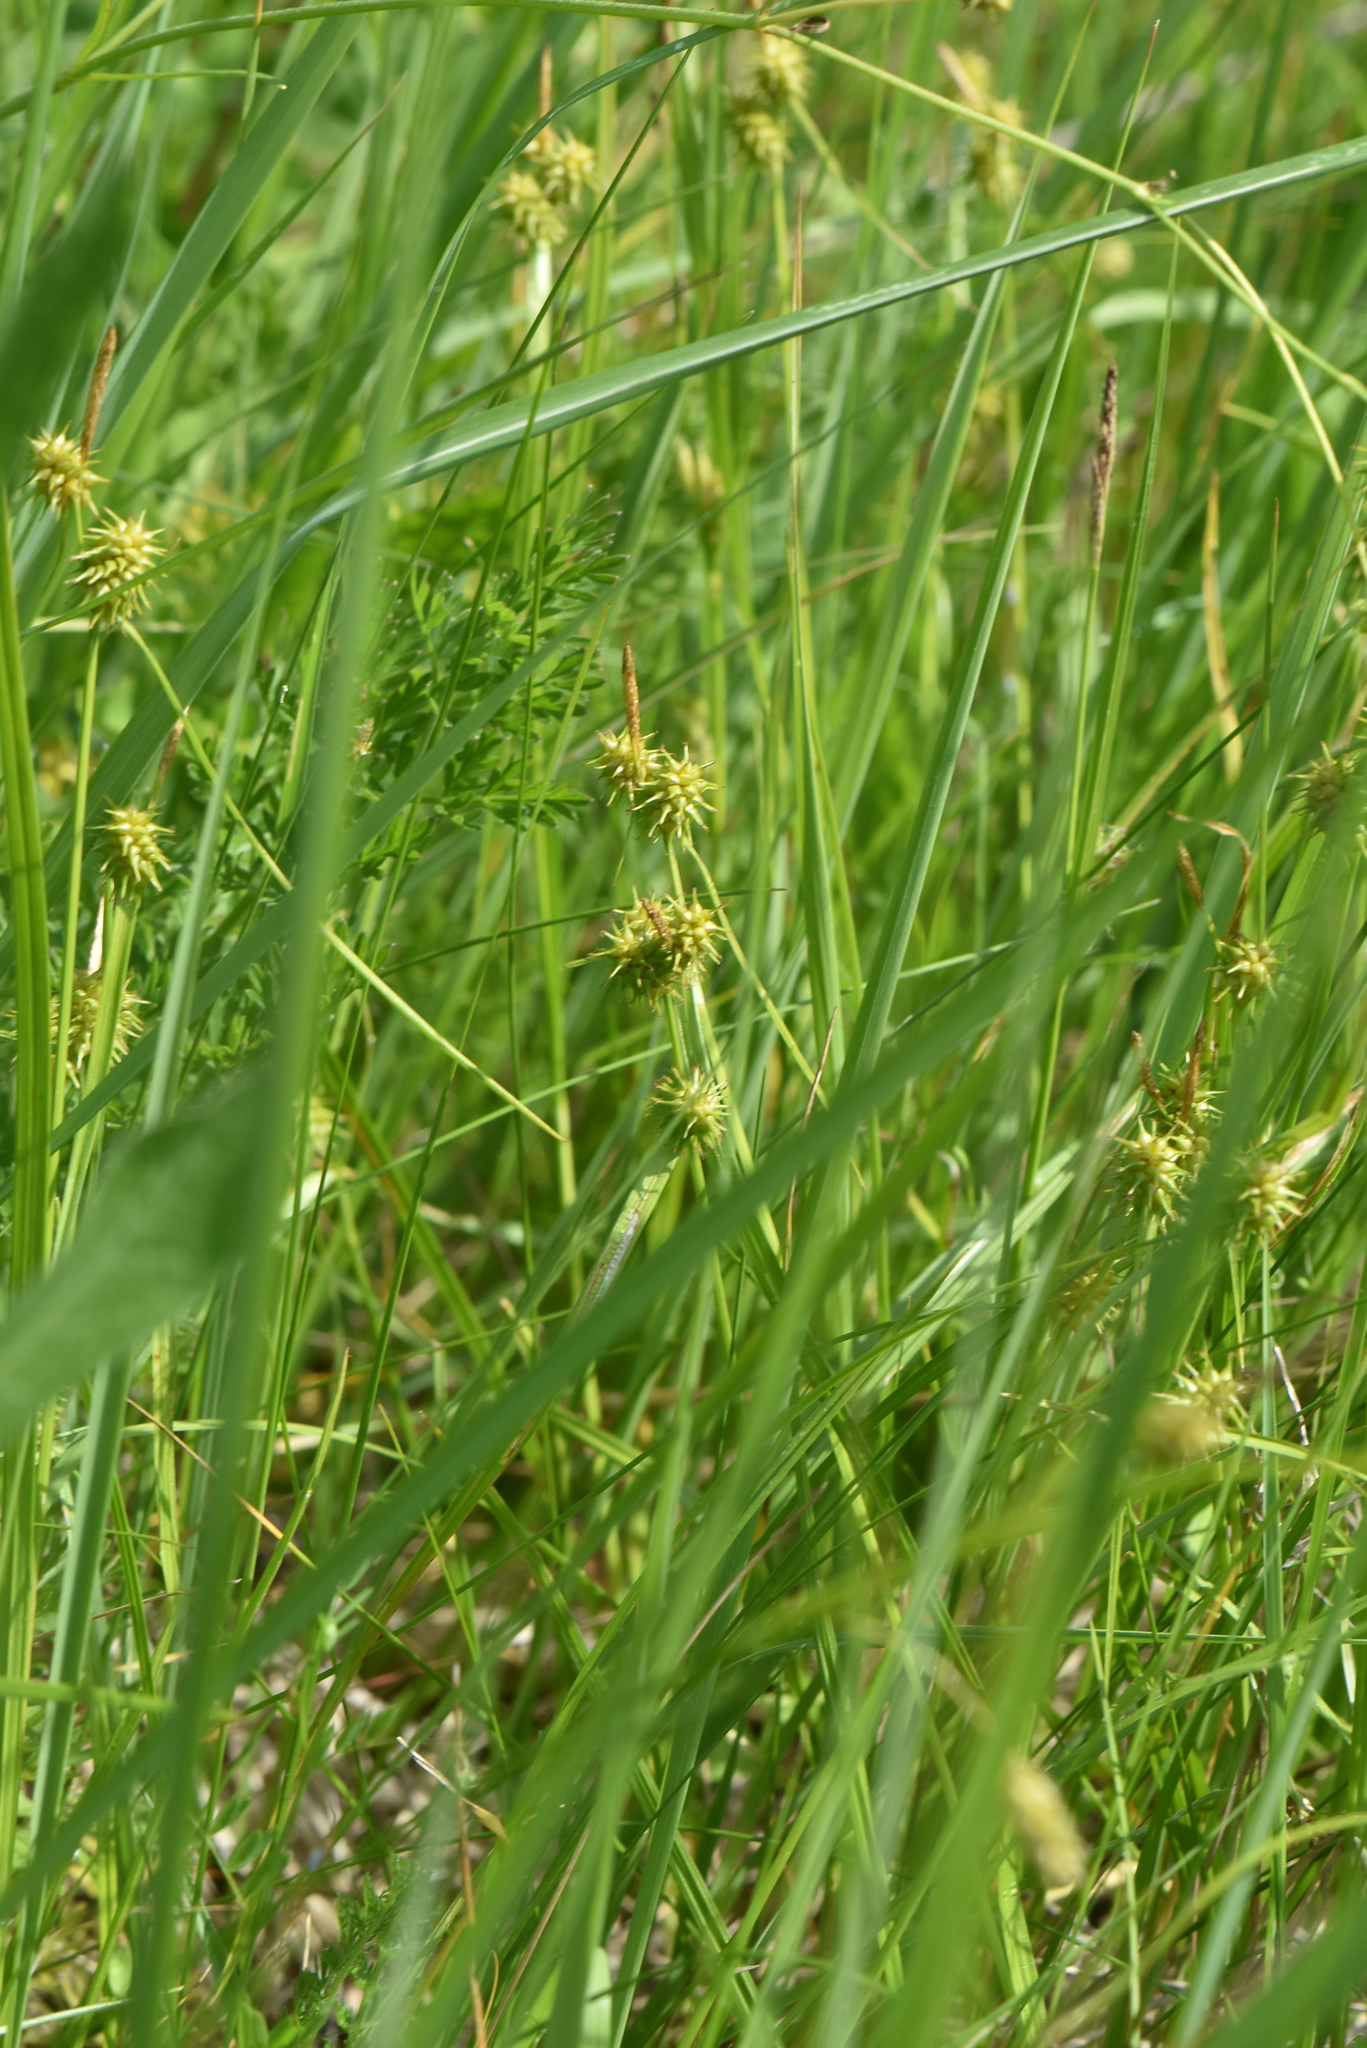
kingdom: Plantae
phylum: Tracheophyta
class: Liliopsida
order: Poales
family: Cyperaceae
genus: Carex
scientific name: Carex flava
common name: Large yellow-sedge
